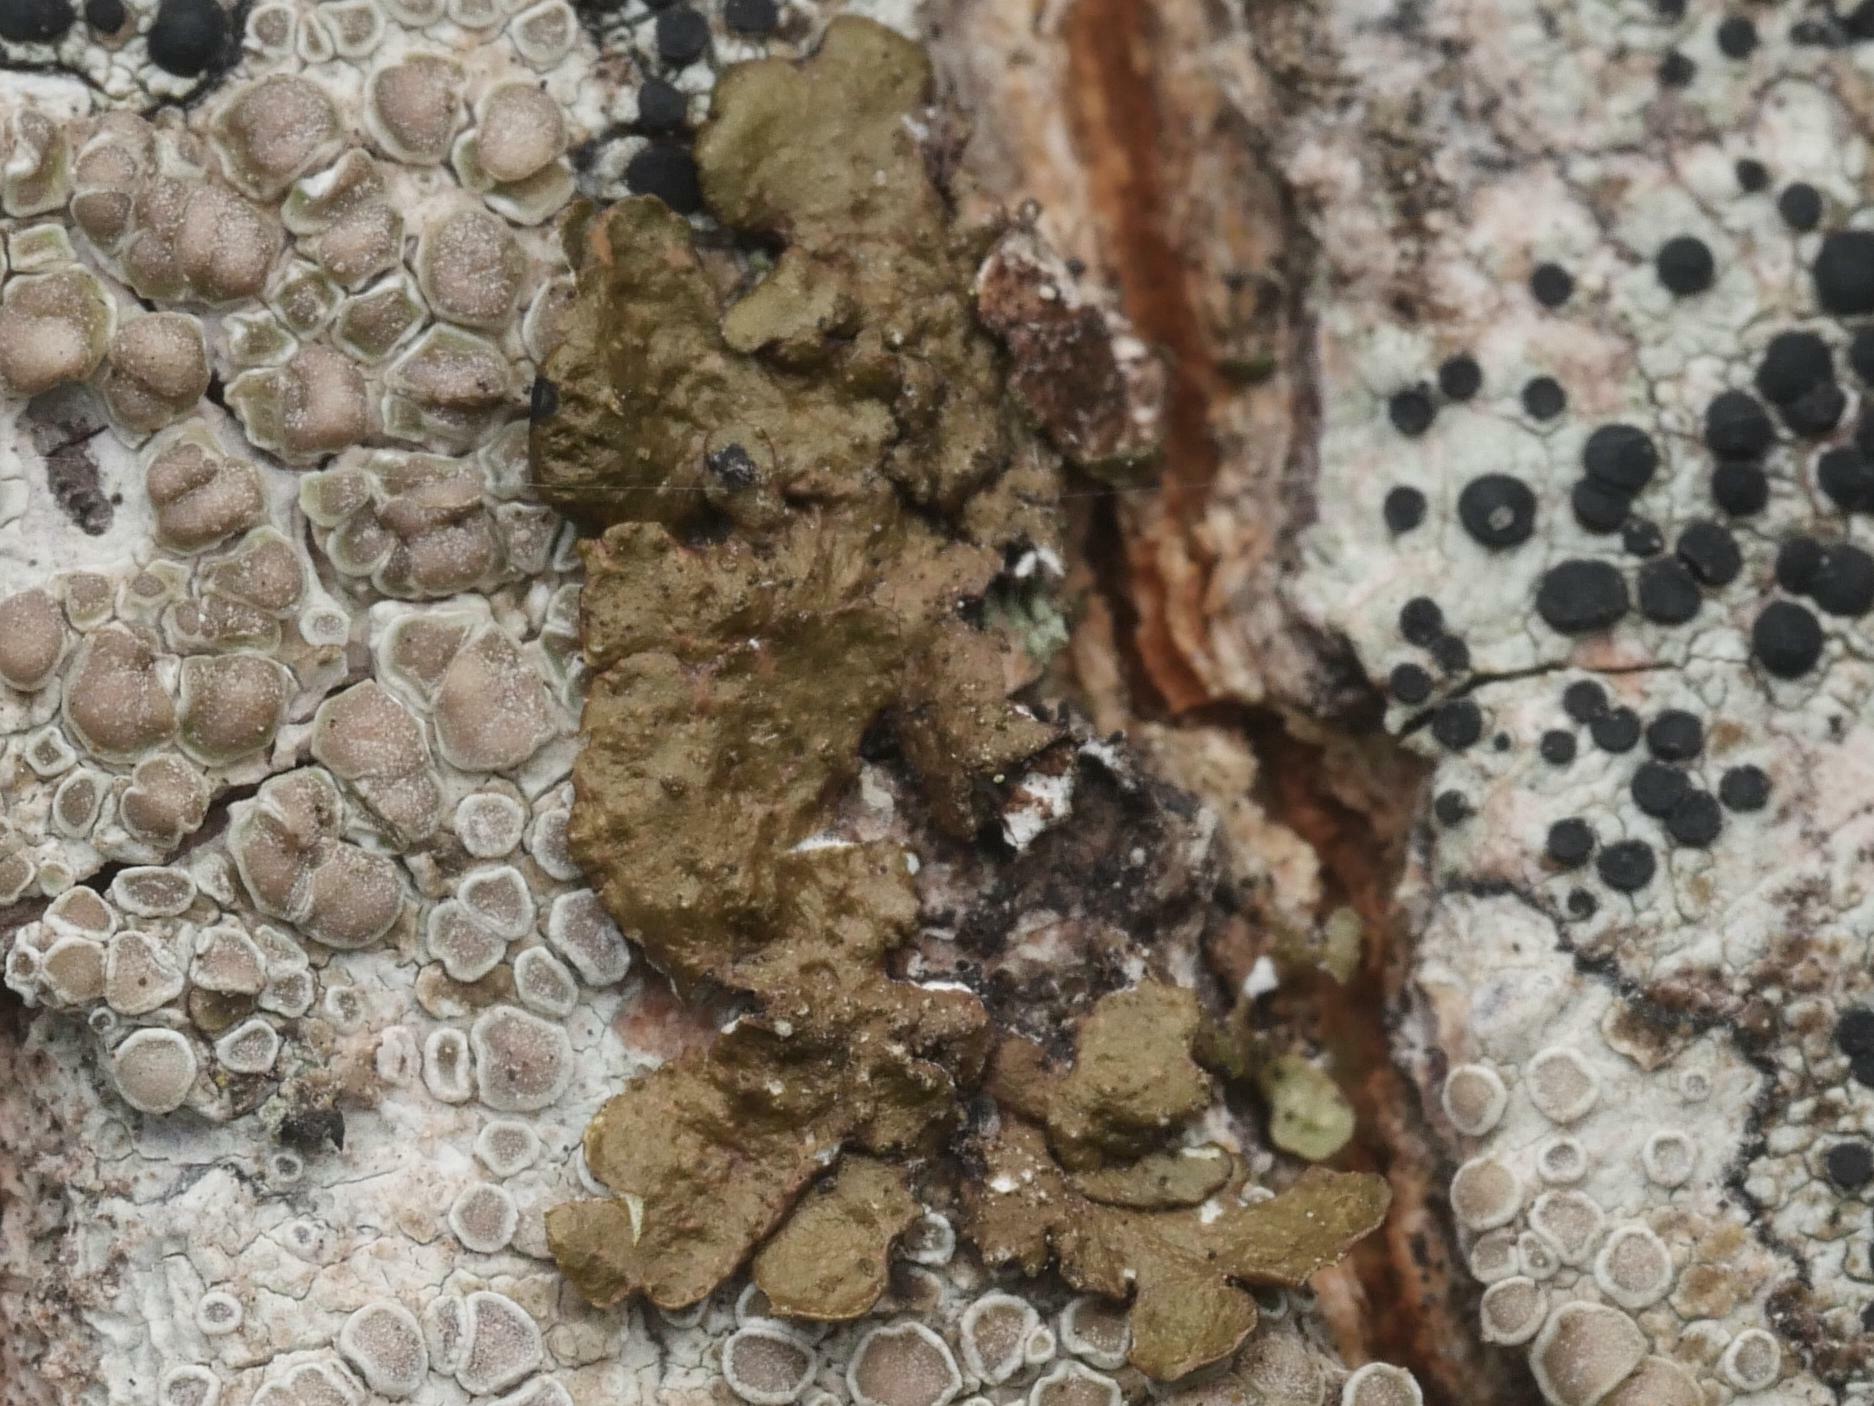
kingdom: Fungi
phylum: Ascomycota
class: Lecanoromycetes
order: Lecanorales
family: Parmeliaceae
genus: Melanelixia
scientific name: Melanelixia subaurifera
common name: Abraded camouflage lichen
